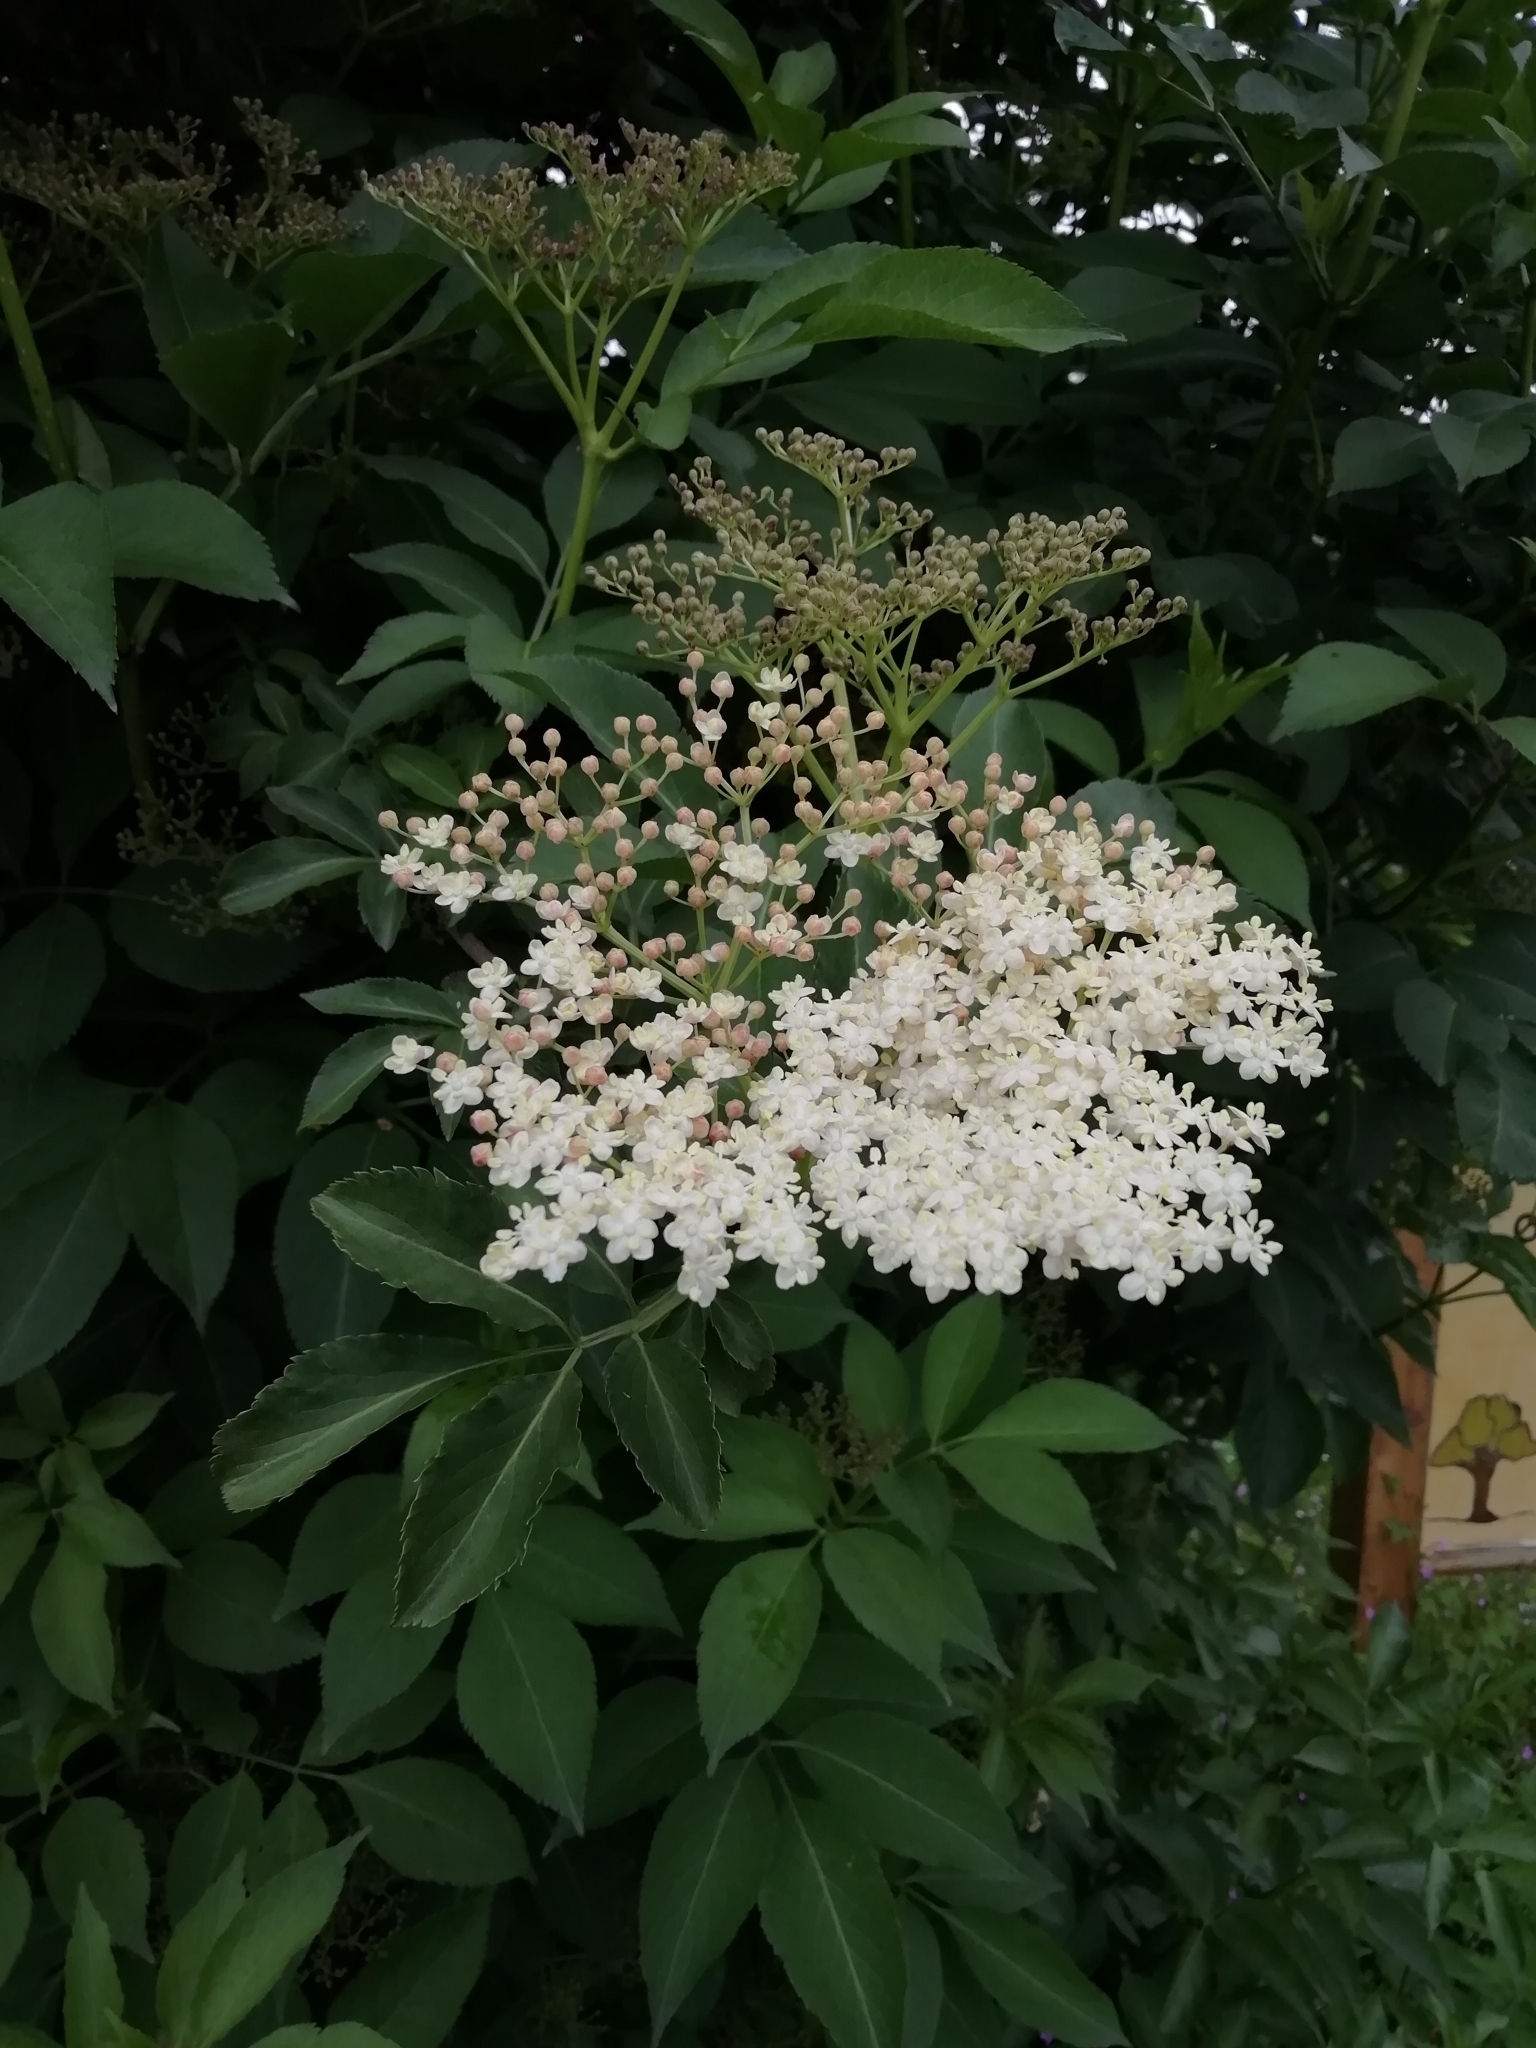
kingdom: Plantae
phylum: Tracheophyta
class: Magnoliopsida
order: Dipsacales
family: Viburnaceae
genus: Sambucus
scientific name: Sambucus nigra
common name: Elder
